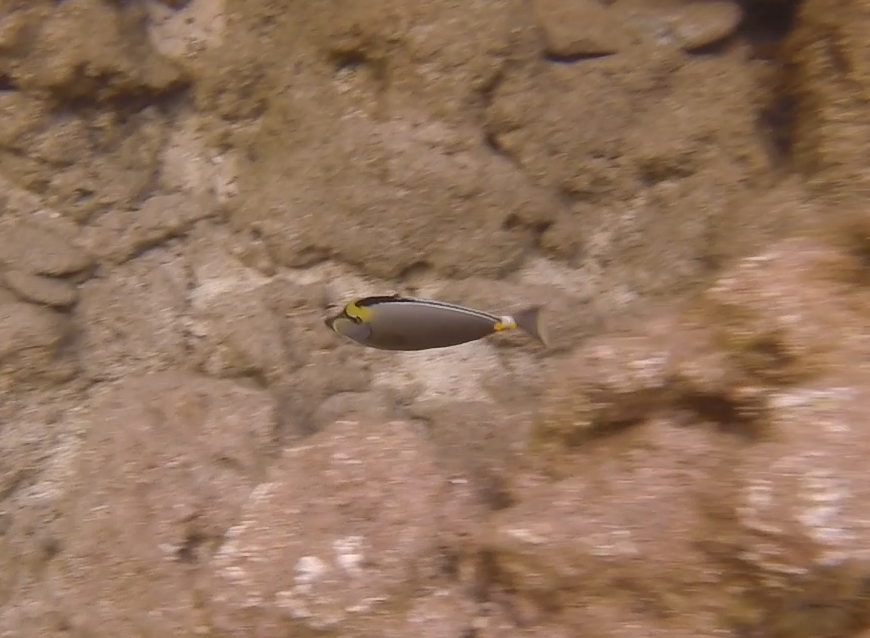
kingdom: Animalia
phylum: Chordata
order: Perciformes
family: Acanthuridae
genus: Naso
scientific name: Naso lituratus
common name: Orangespine unicornfish
